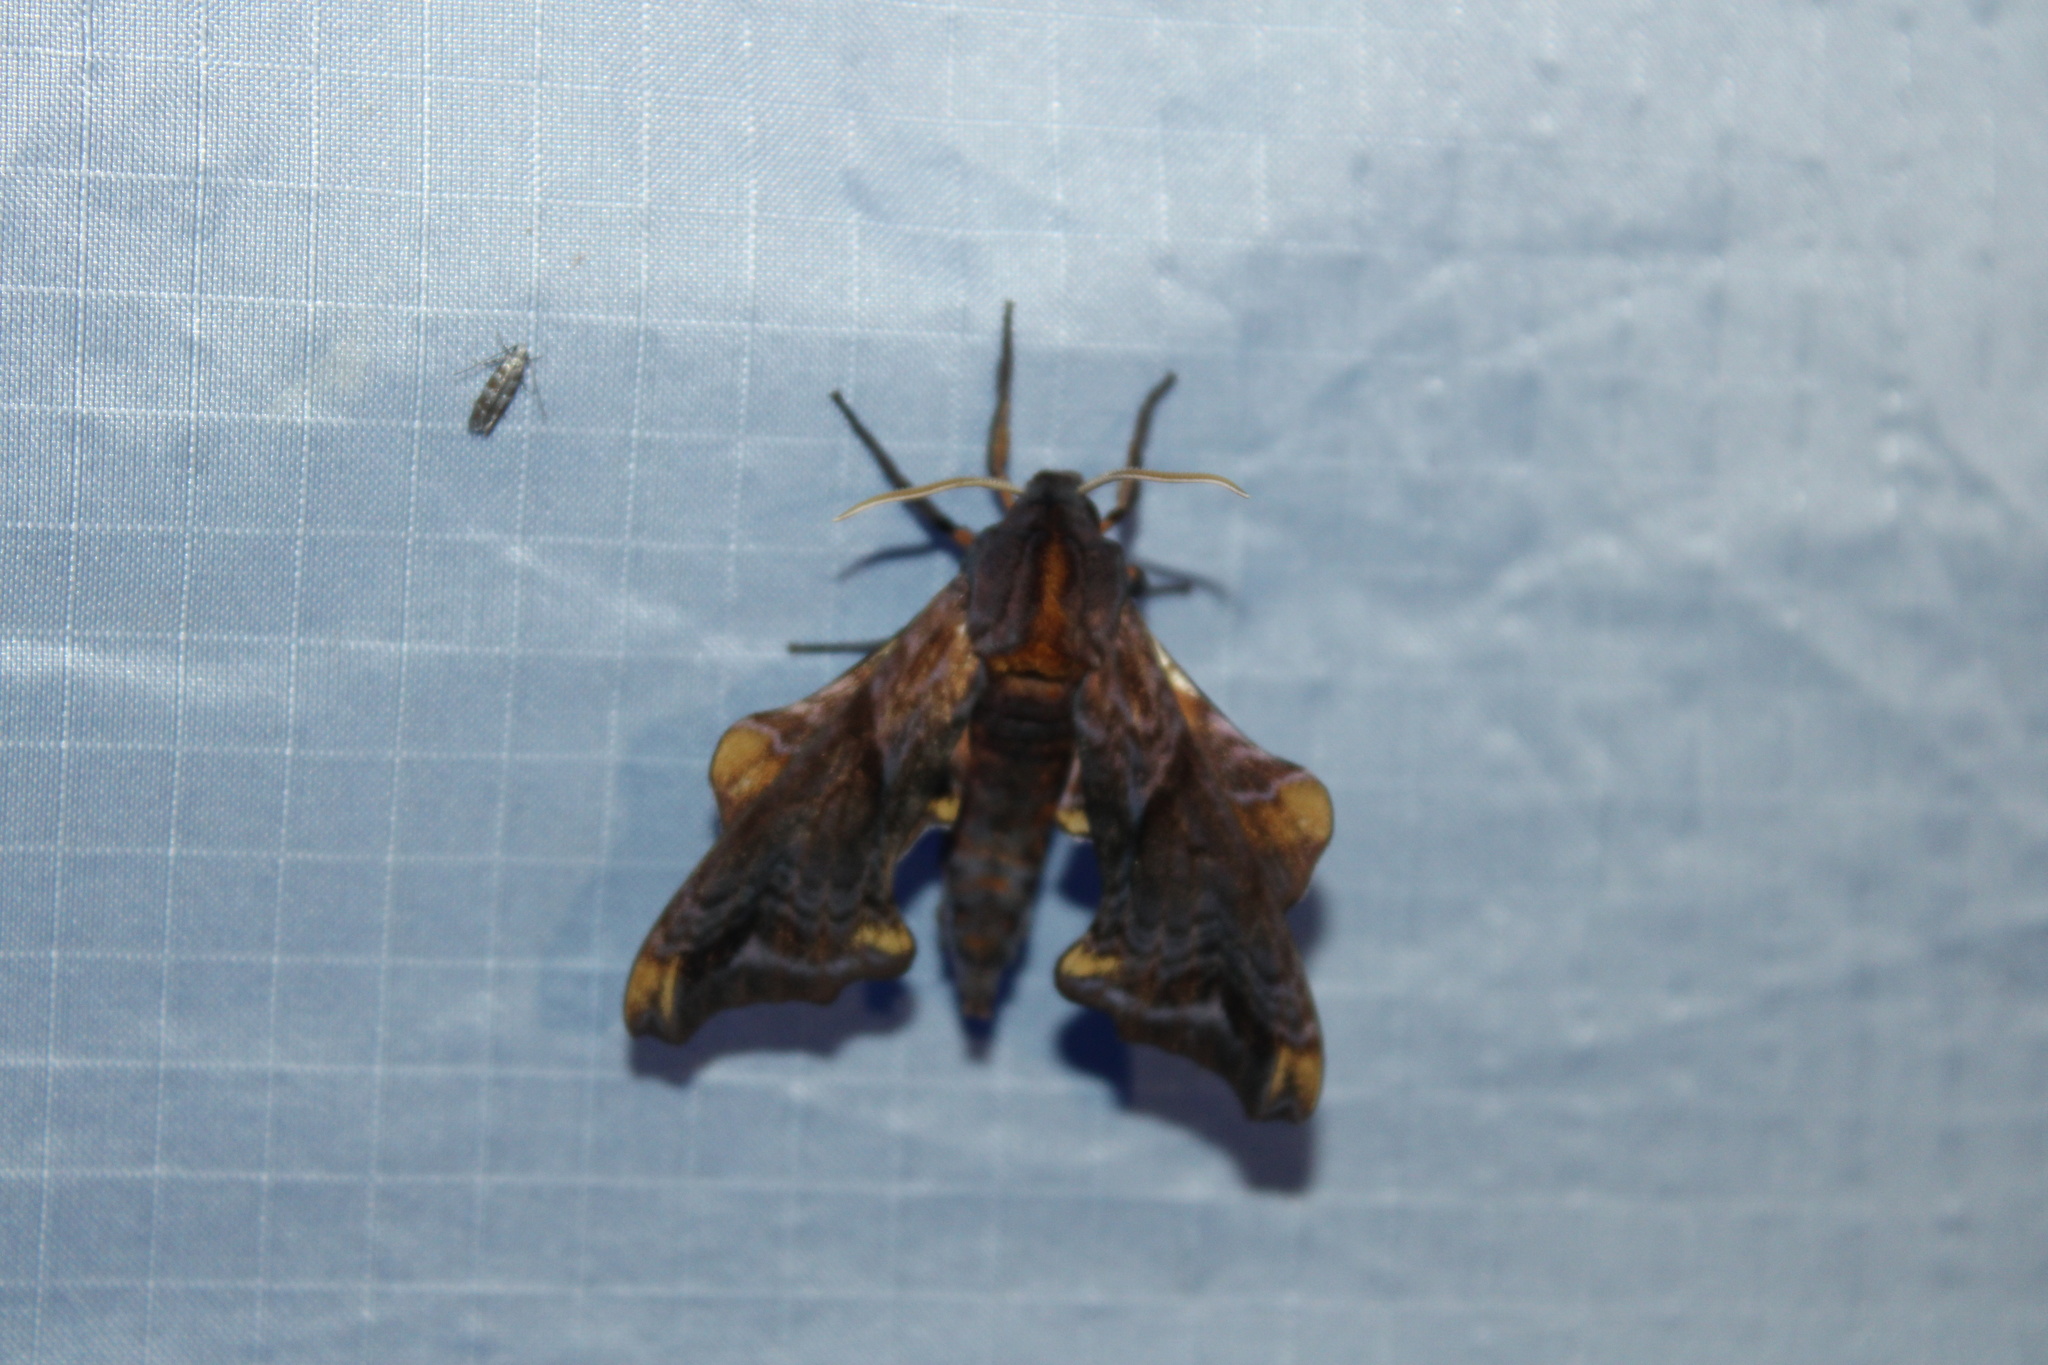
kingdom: Animalia
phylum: Arthropoda
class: Insecta
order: Lepidoptera
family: Sphingidae
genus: Paonias
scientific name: Paonias myops
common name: Small-eyed sphinx
